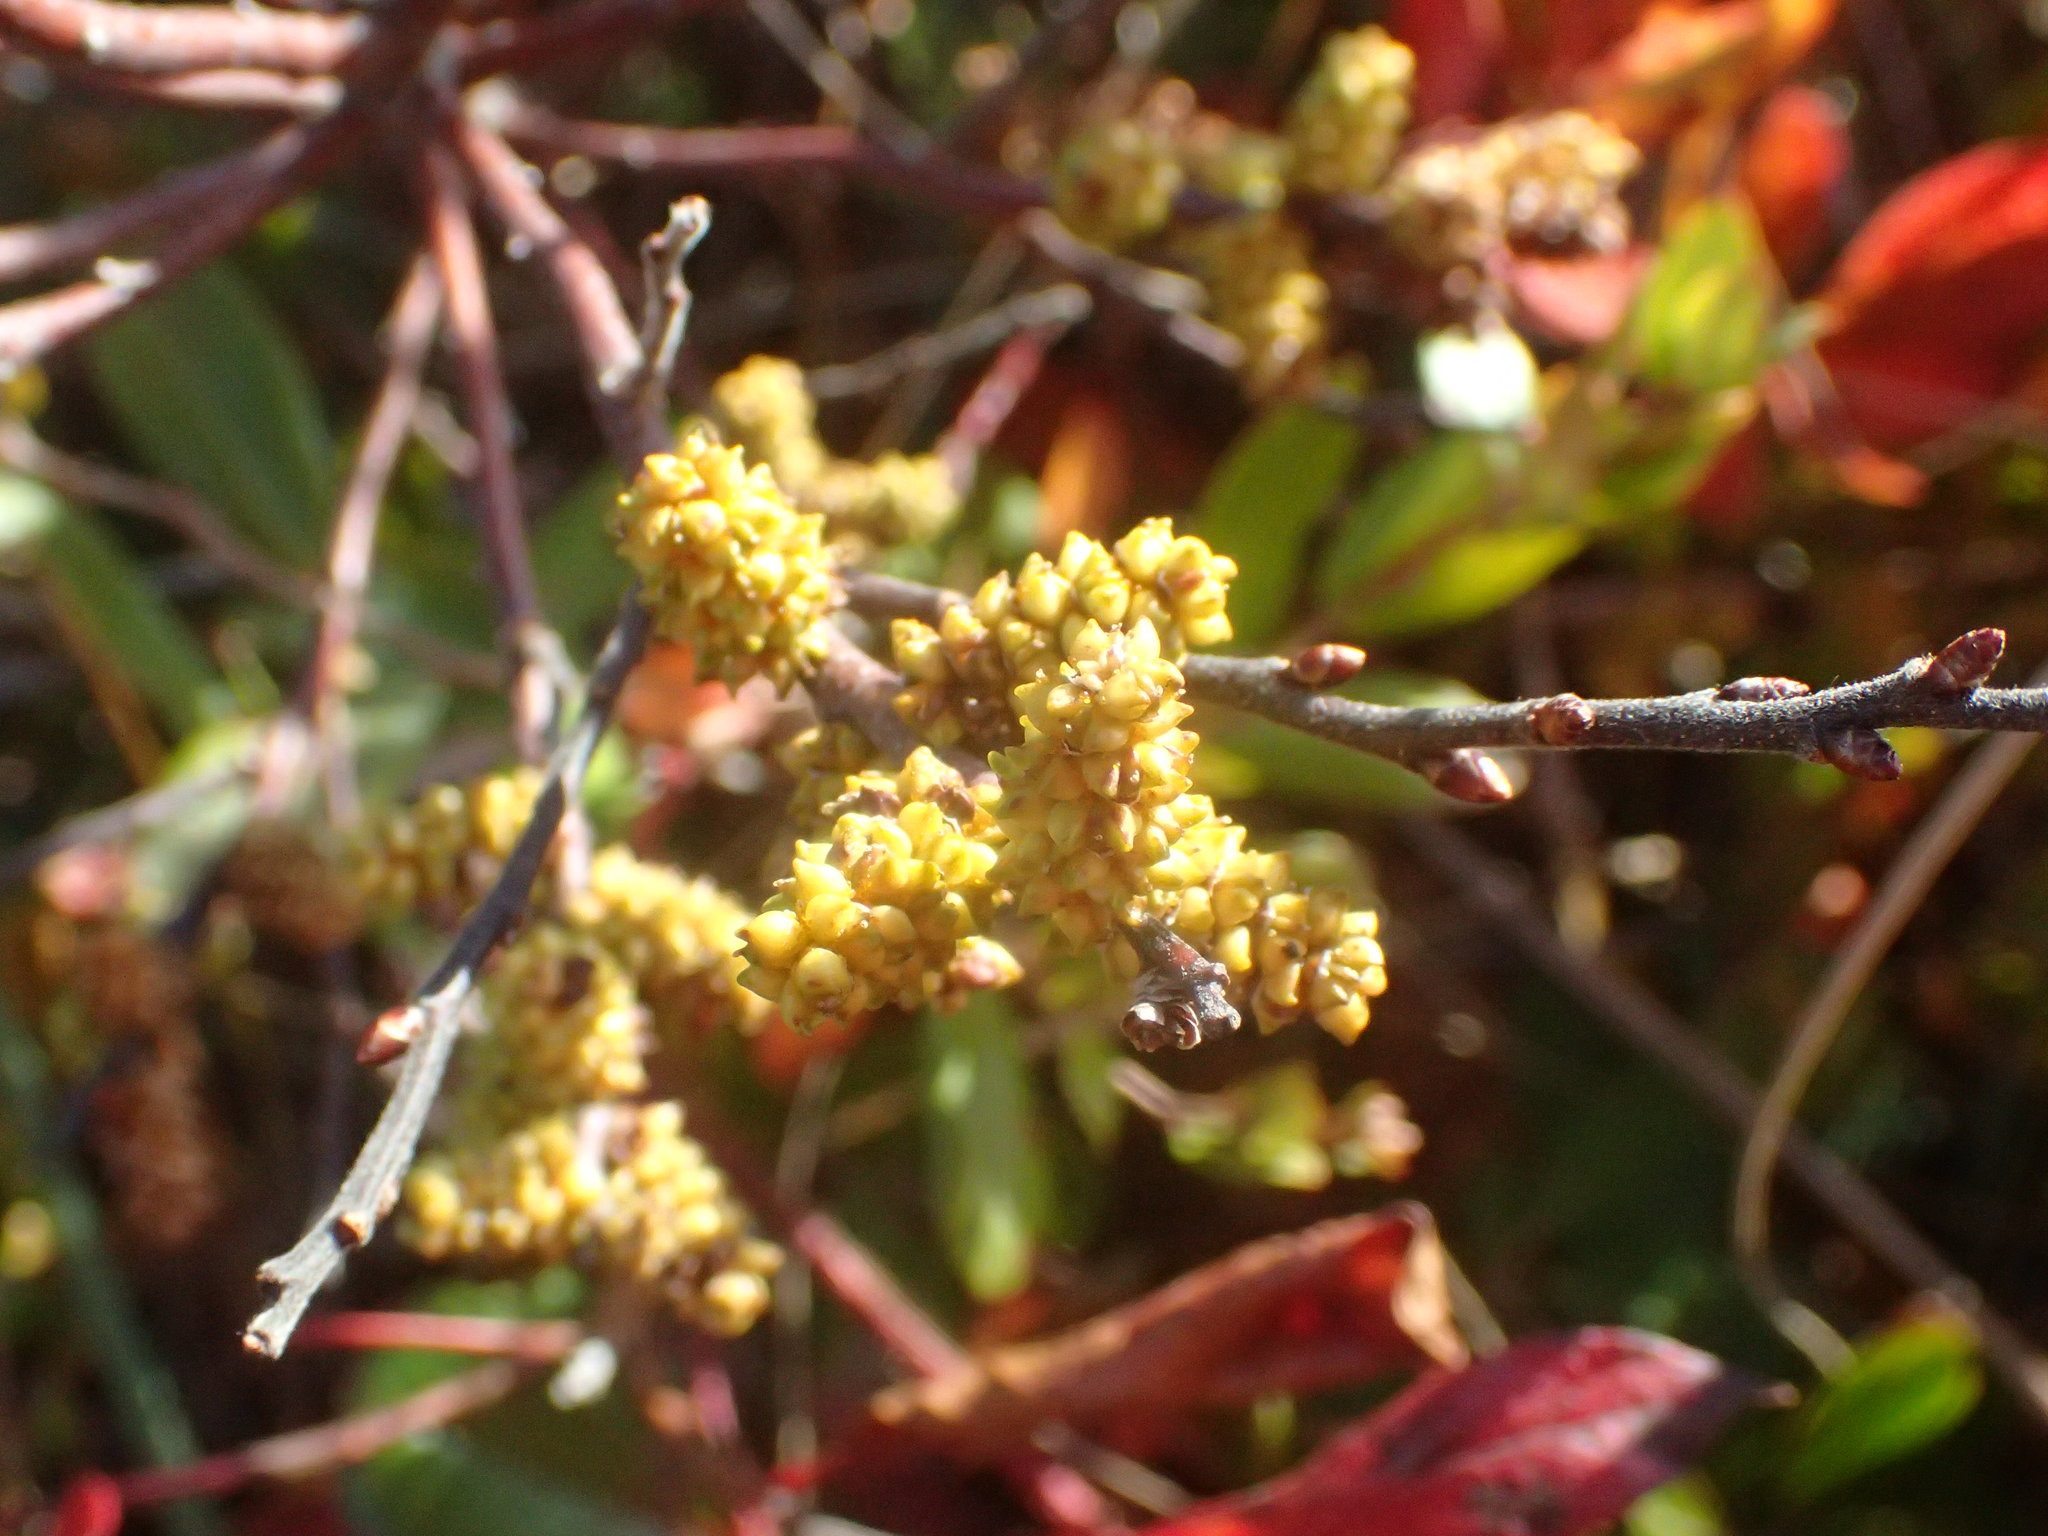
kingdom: Plantae
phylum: Tracheophyta
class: Magnoliopsida
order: Fagales
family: Myricaceae
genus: Myrica
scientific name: Myrica gale
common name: Sweet gale
